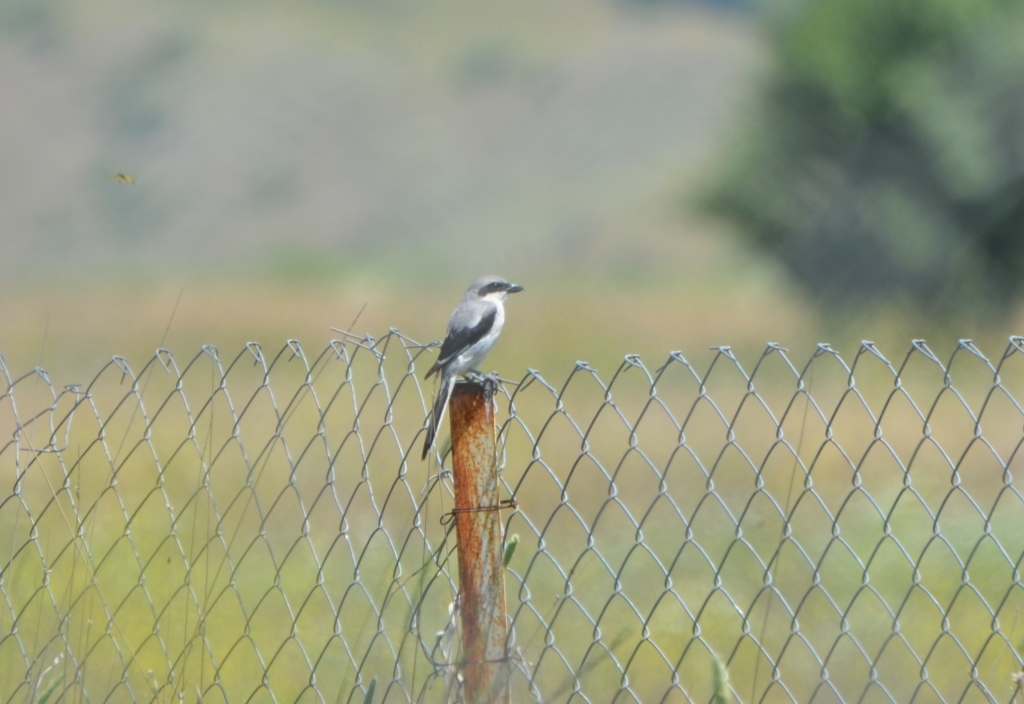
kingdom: Animalia
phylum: Chordata
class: Aves
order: Passeriformes
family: Laniidae
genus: Lanius
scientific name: Lanius excubitor
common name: Great grey shrike
